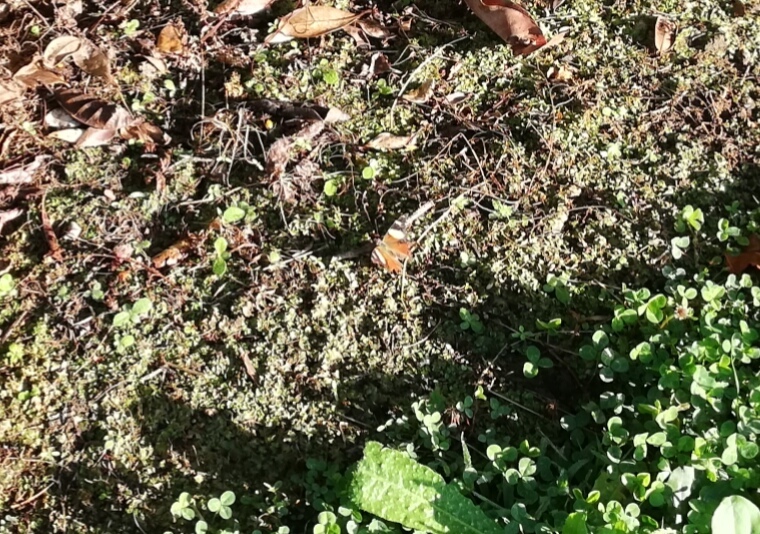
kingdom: Animalia
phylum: Arthropoda
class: Insecta
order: Lepidoptera
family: Nymphalidae
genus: Vanessa
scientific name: Vanessa itea
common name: Yellow admiral
